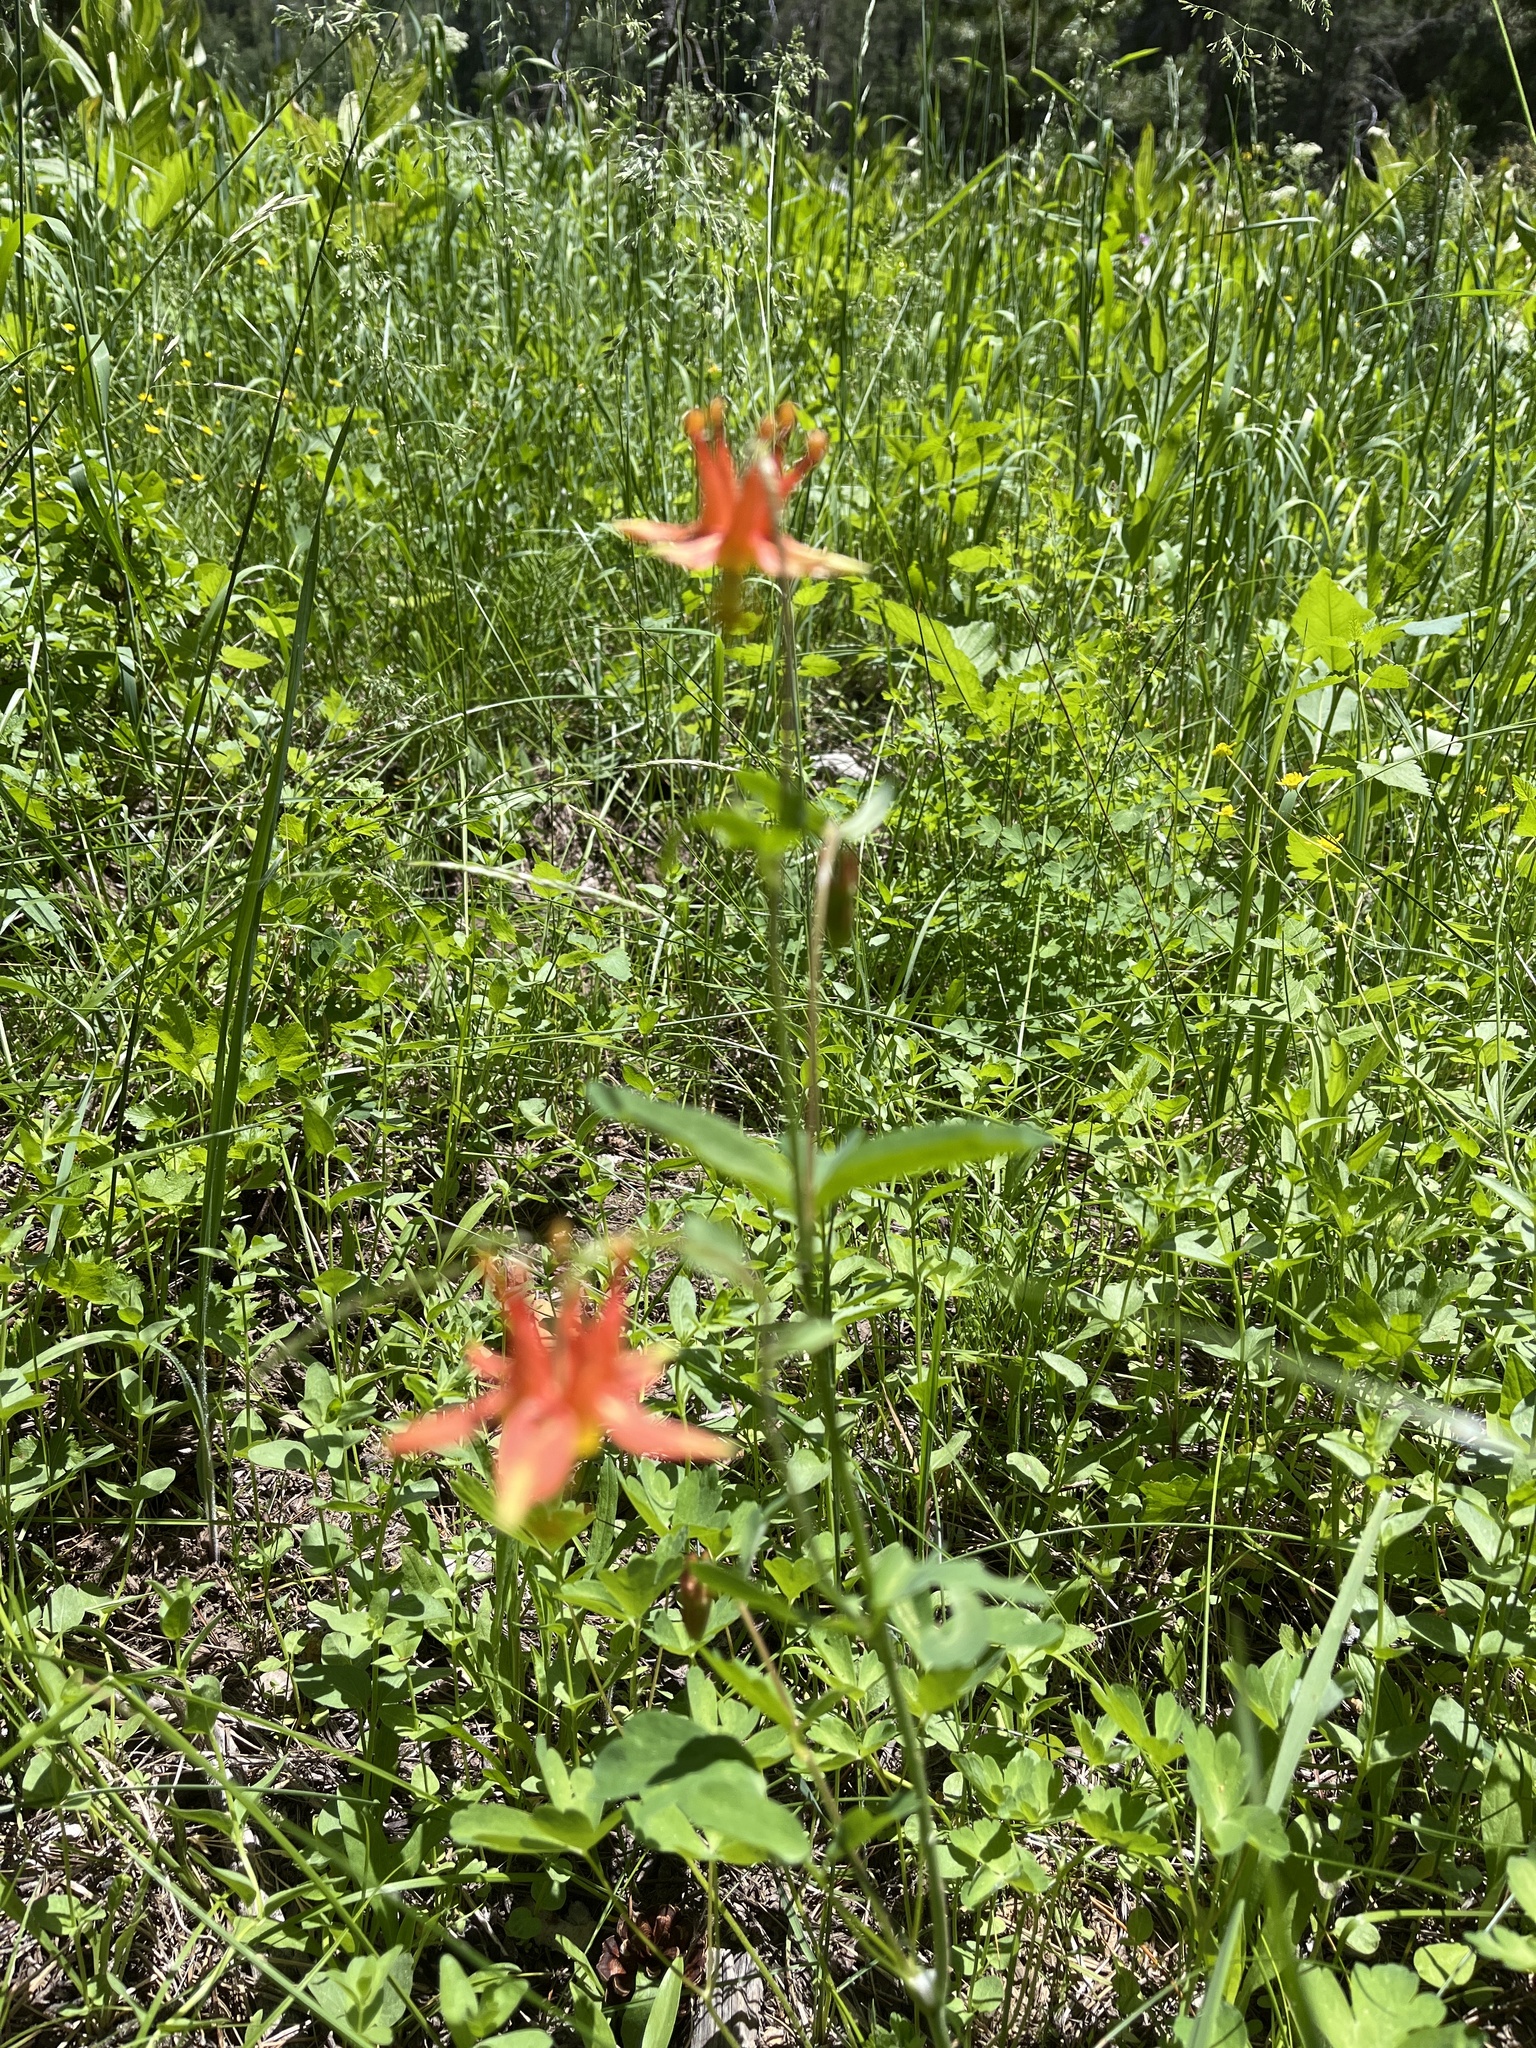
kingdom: Plantae
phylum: Tracheophyta
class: Magnoliopsida
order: Ranunculales
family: Ranunculaceae
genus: Aquilegia
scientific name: Aquilegia formosa
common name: Sitka columbine
